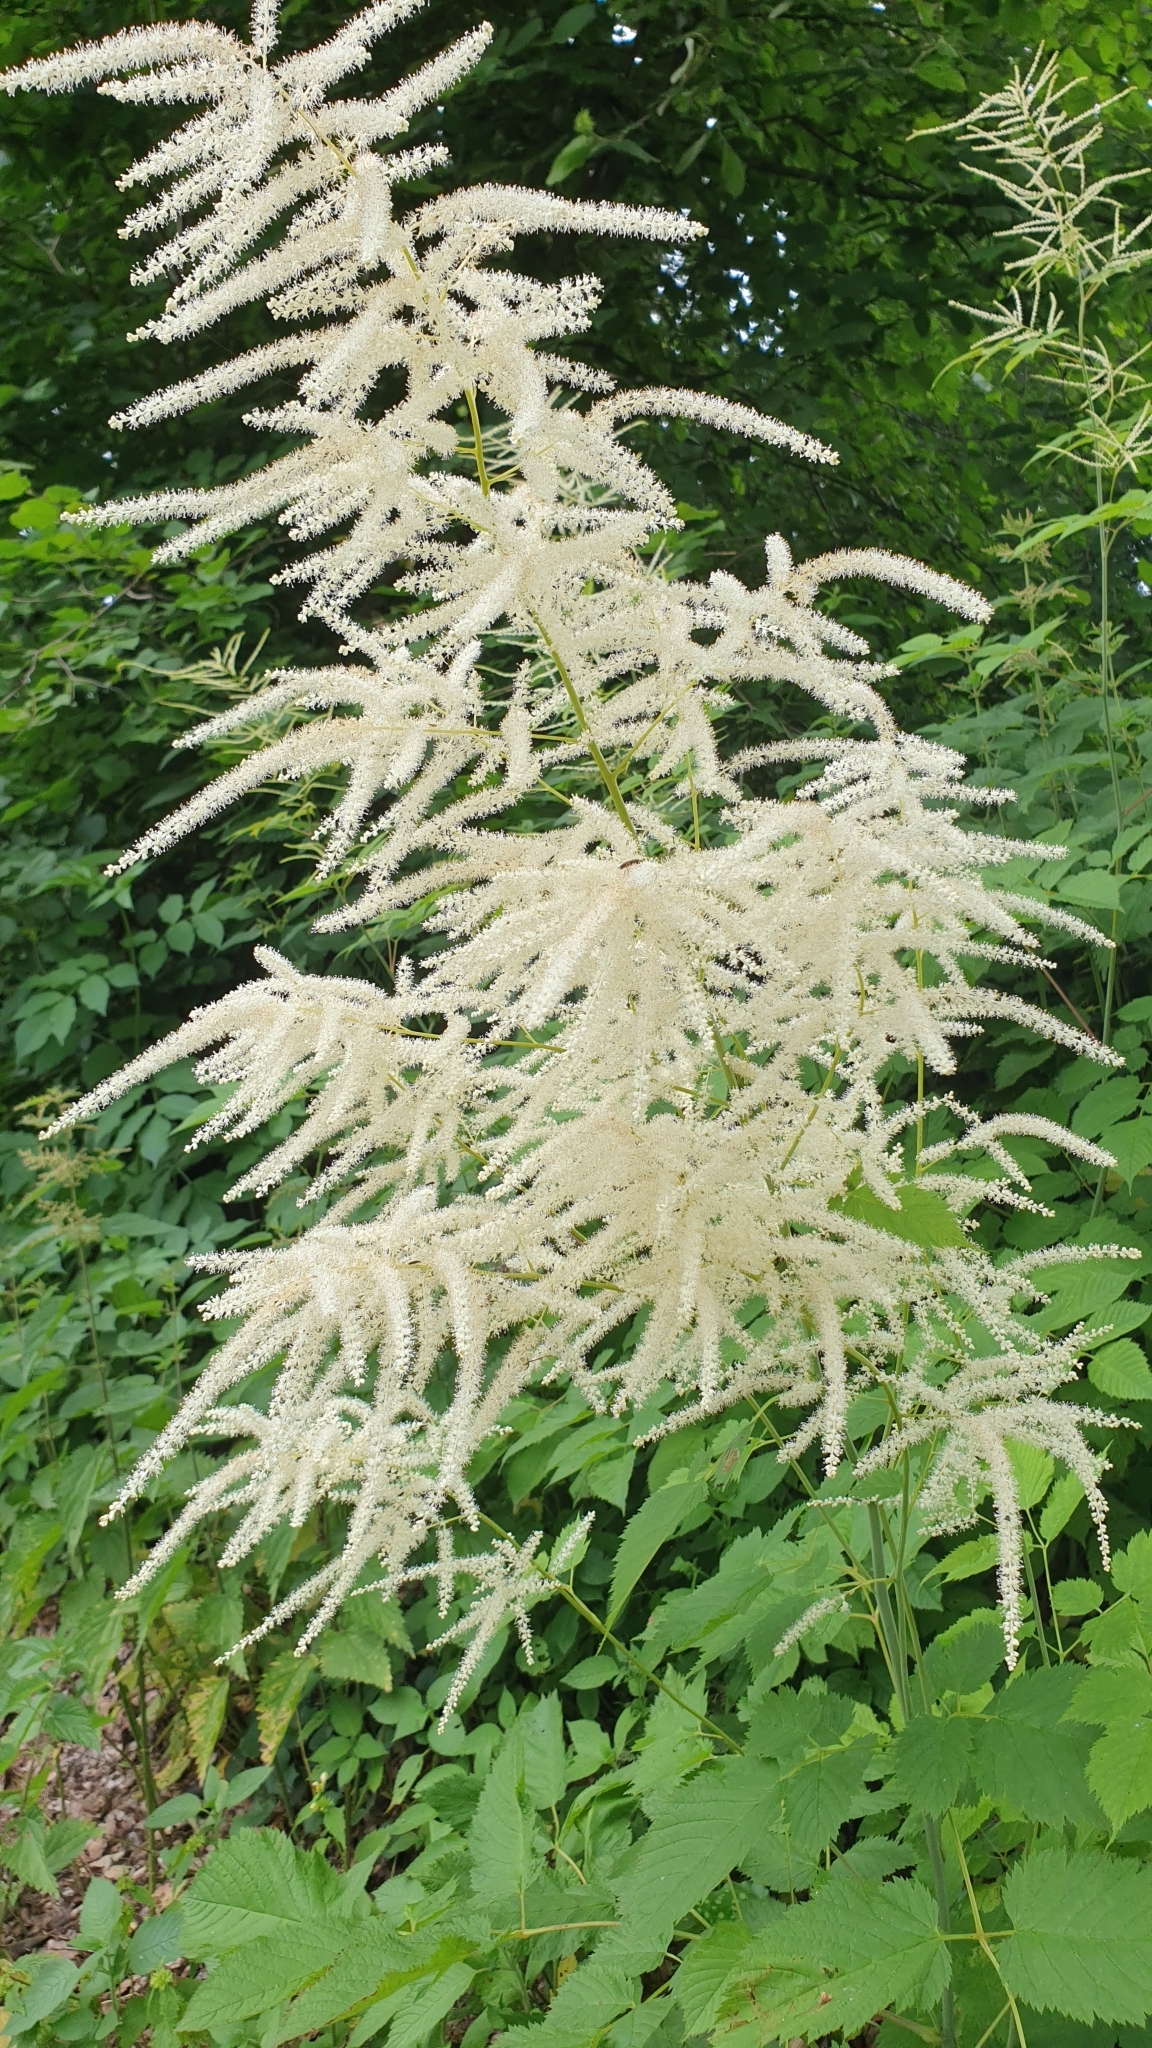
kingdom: Plantae
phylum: Tracheophyta
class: Magnoliopsida
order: Rosales
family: Rosaceae
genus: Aruncus
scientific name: Aruncus dioicus
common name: Buck's-beard
